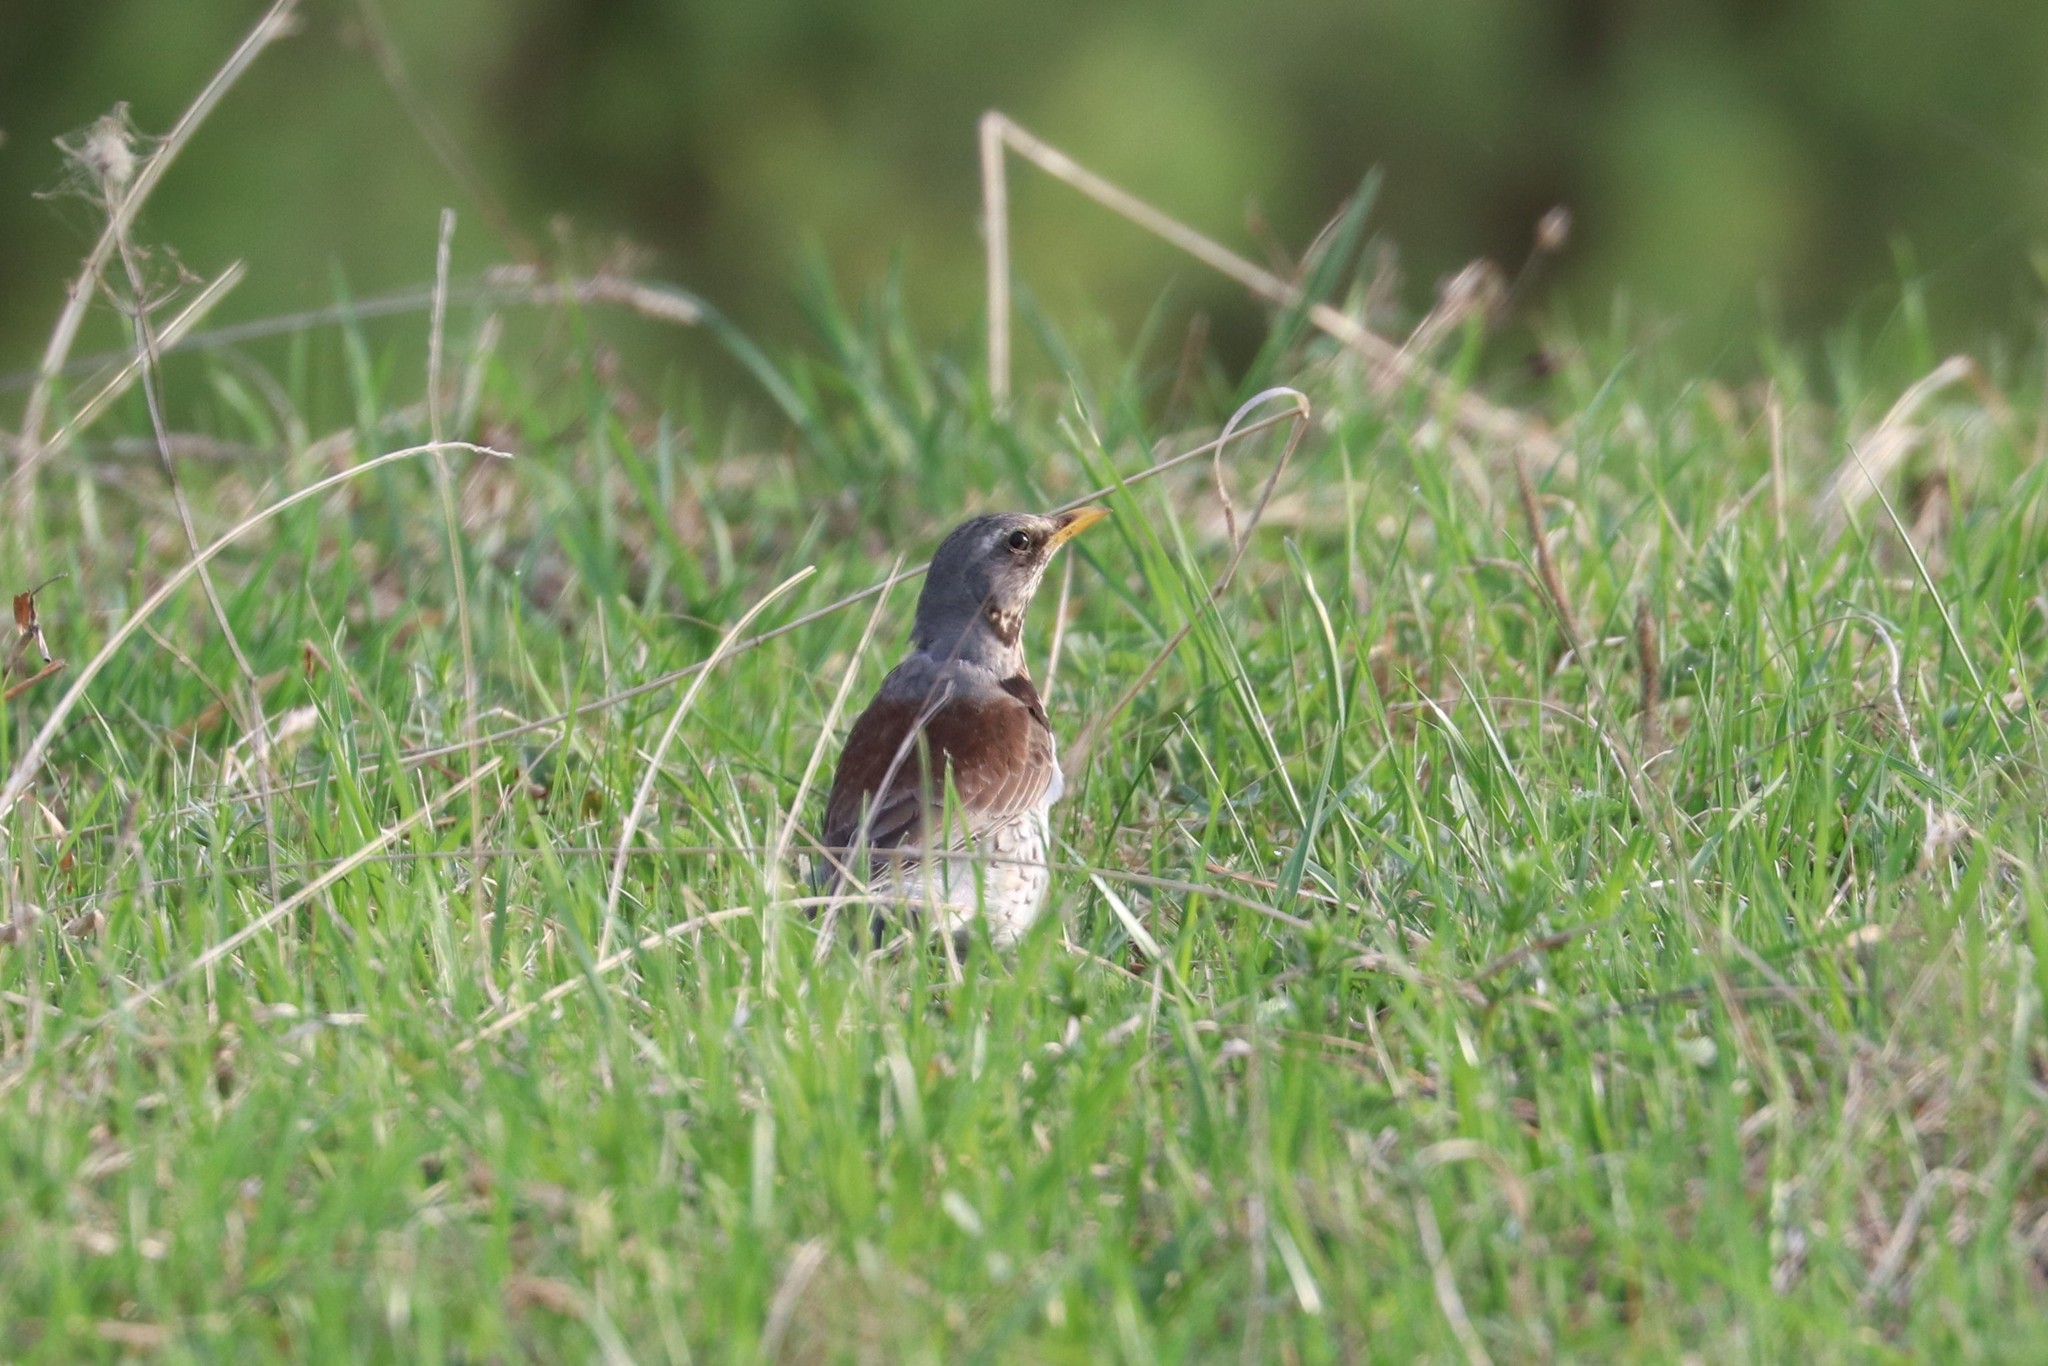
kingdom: Animalia
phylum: Chordata
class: Aves
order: Passeriformes
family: Turdidae
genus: Turdus
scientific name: Turdus pilaris
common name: Fieldfare
